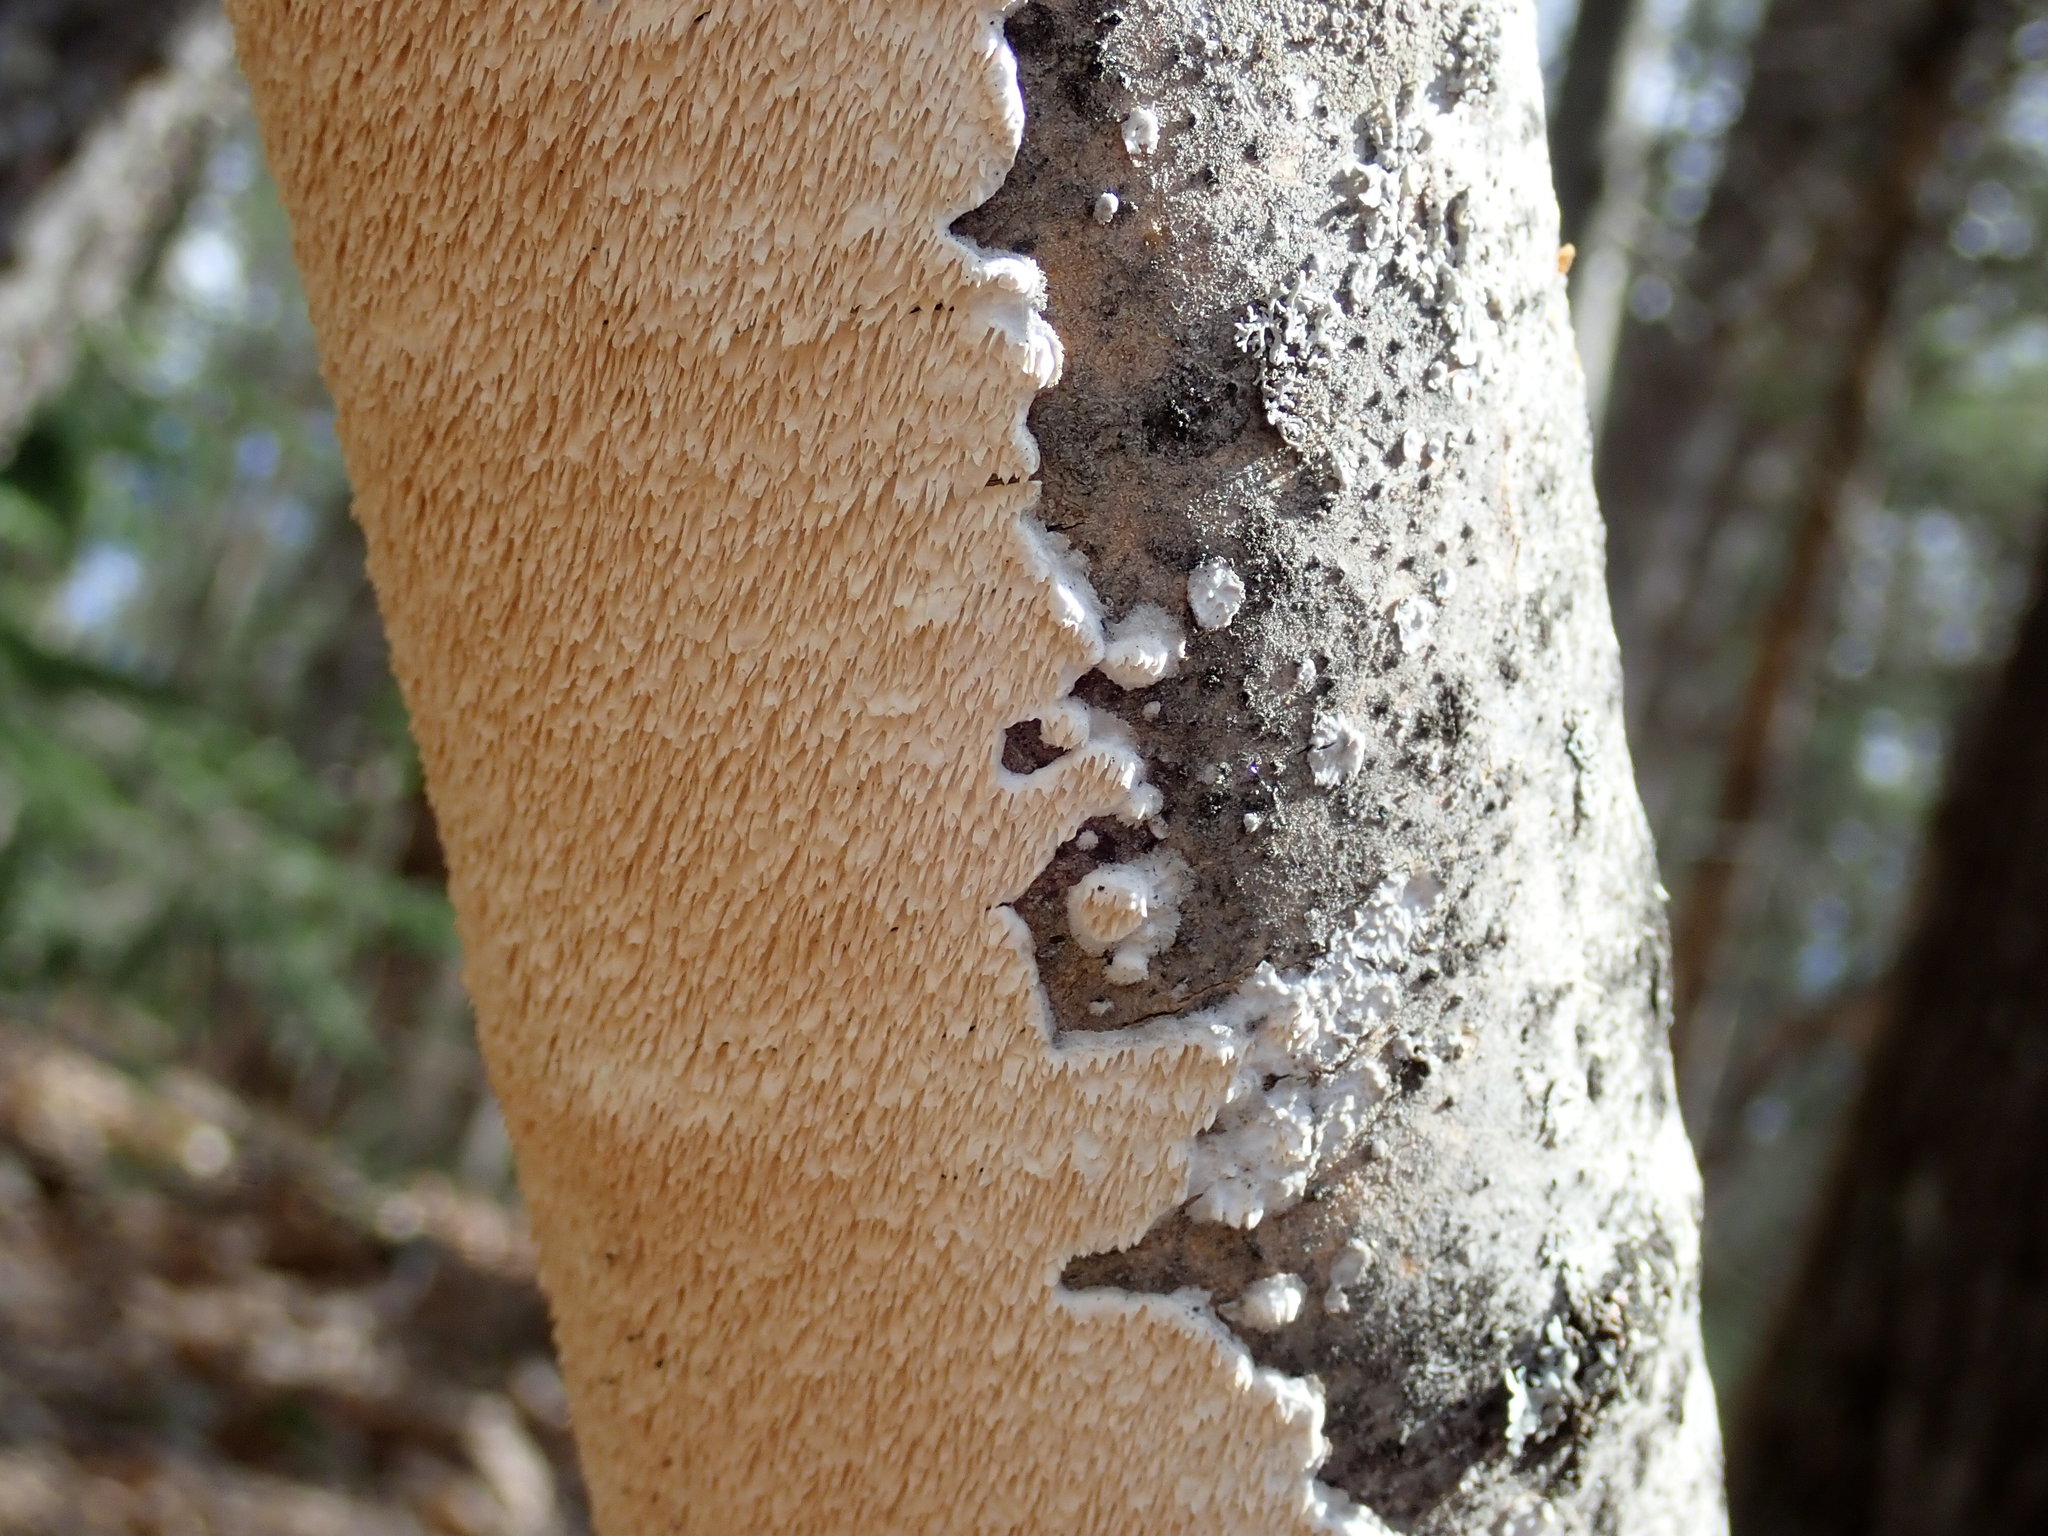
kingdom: Fungi
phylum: Basidiomycota
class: Agaricomycetes
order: Polyporales
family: Irpicaceae
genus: Irpex
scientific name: Irpex lacteus
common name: Milk-white toothed polypore
